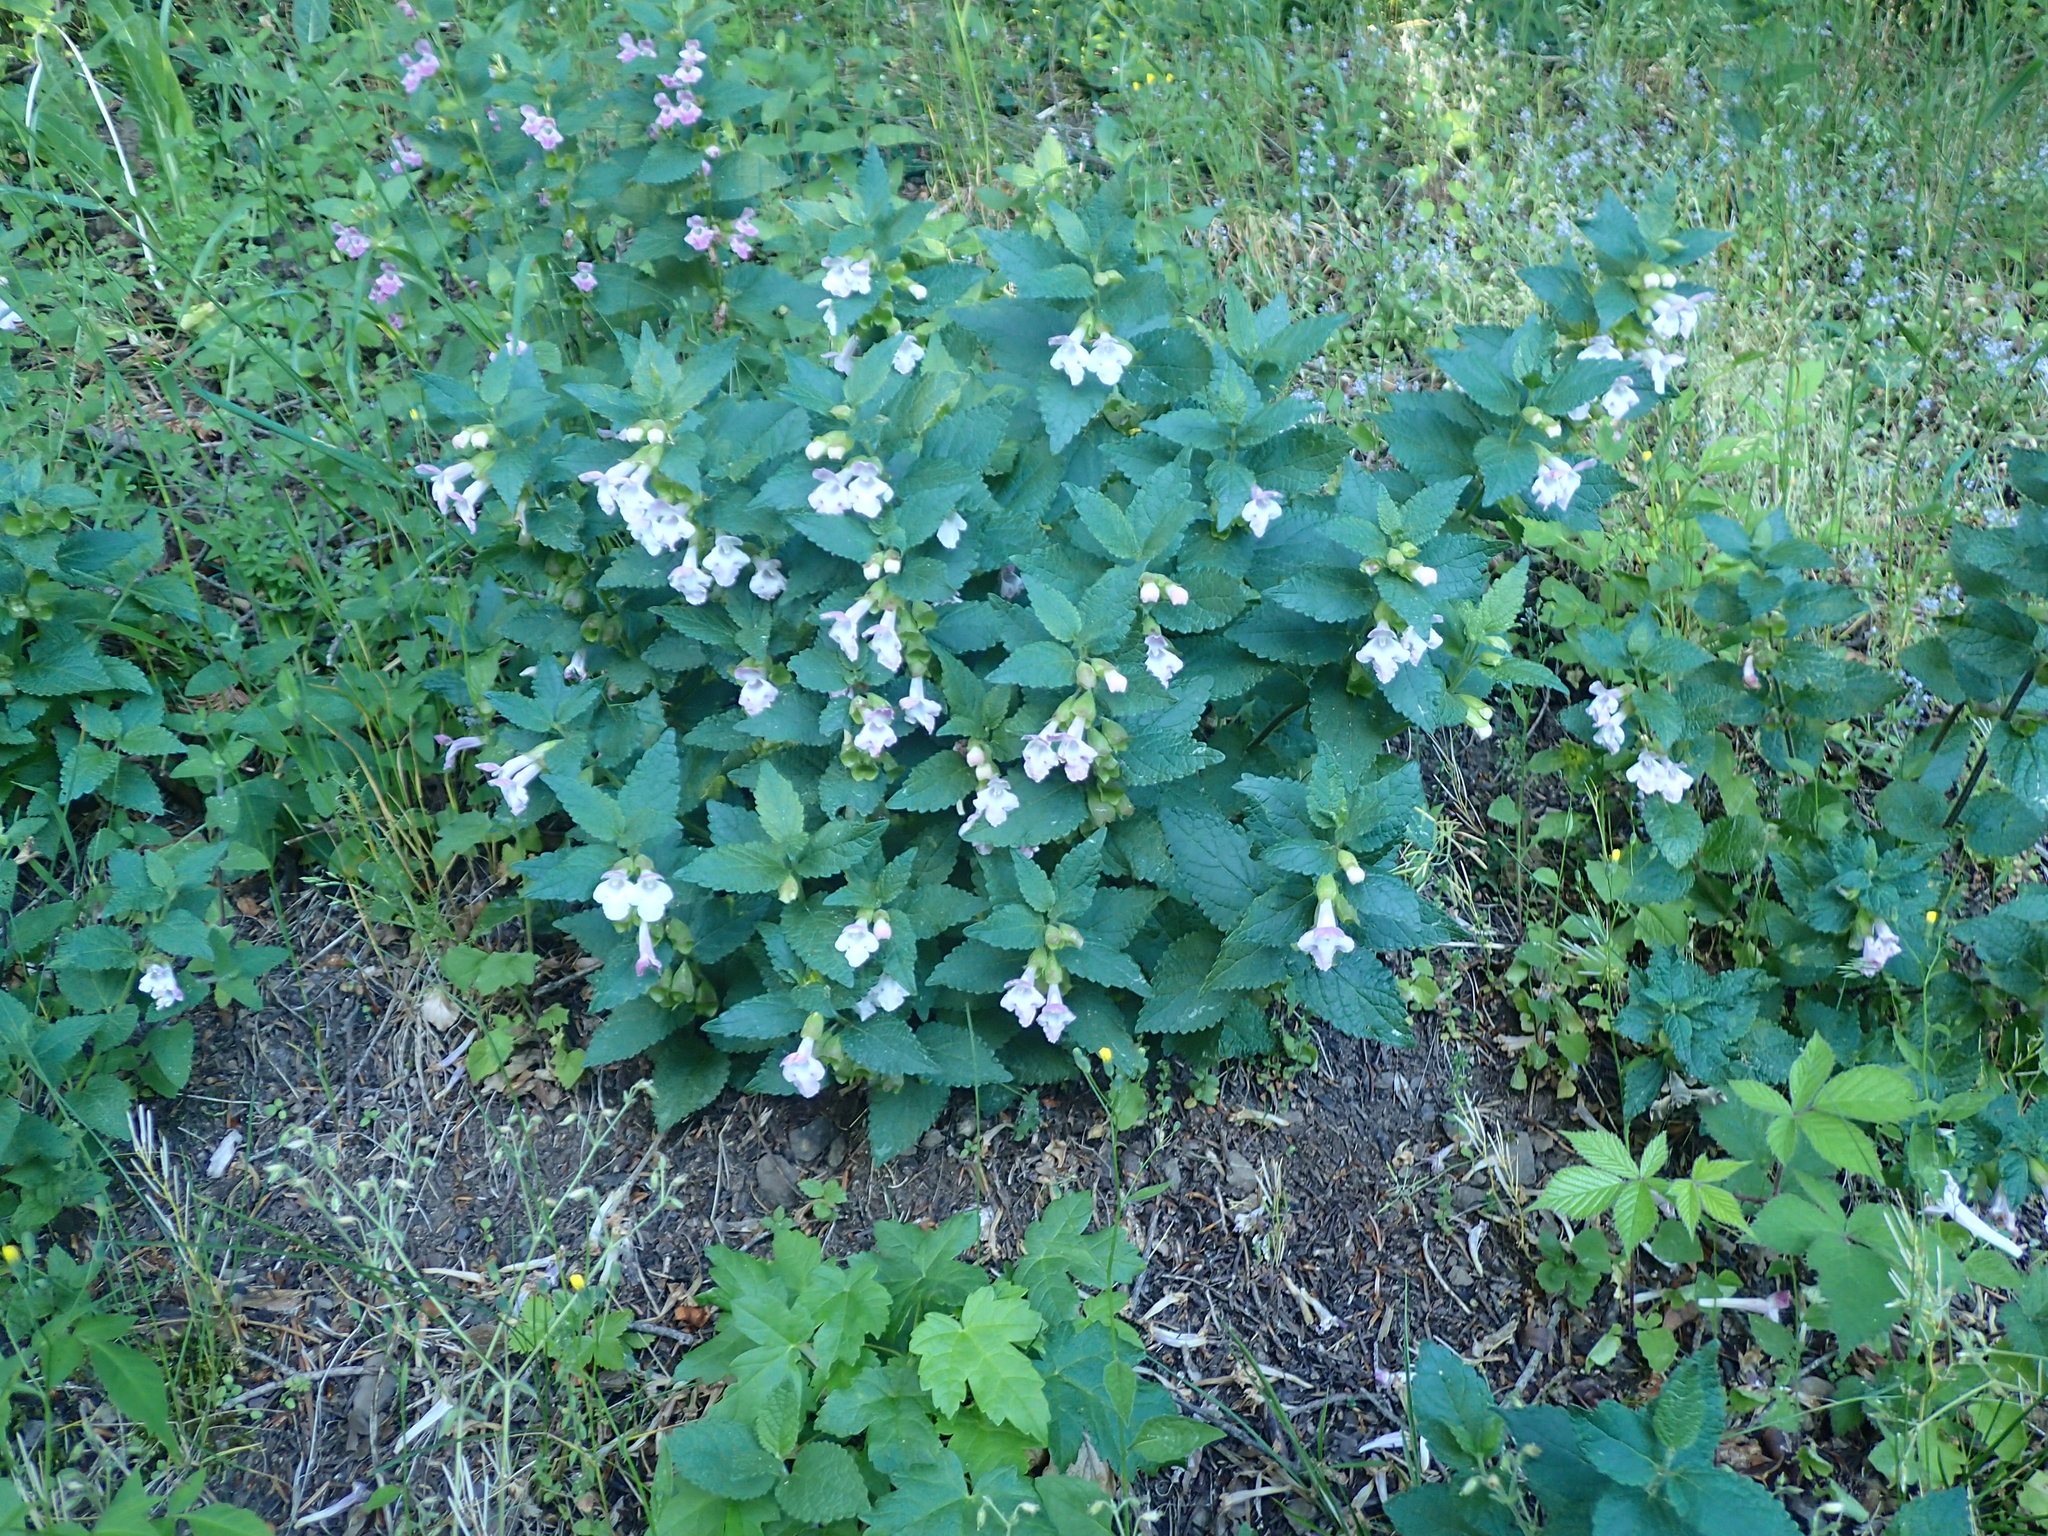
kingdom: Plantae
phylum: Tracheophyta
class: Magnoliopsida
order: Lamiales
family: Lamiaceae
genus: Melittis
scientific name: Melittis melissophyllum
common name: Bastard balm
